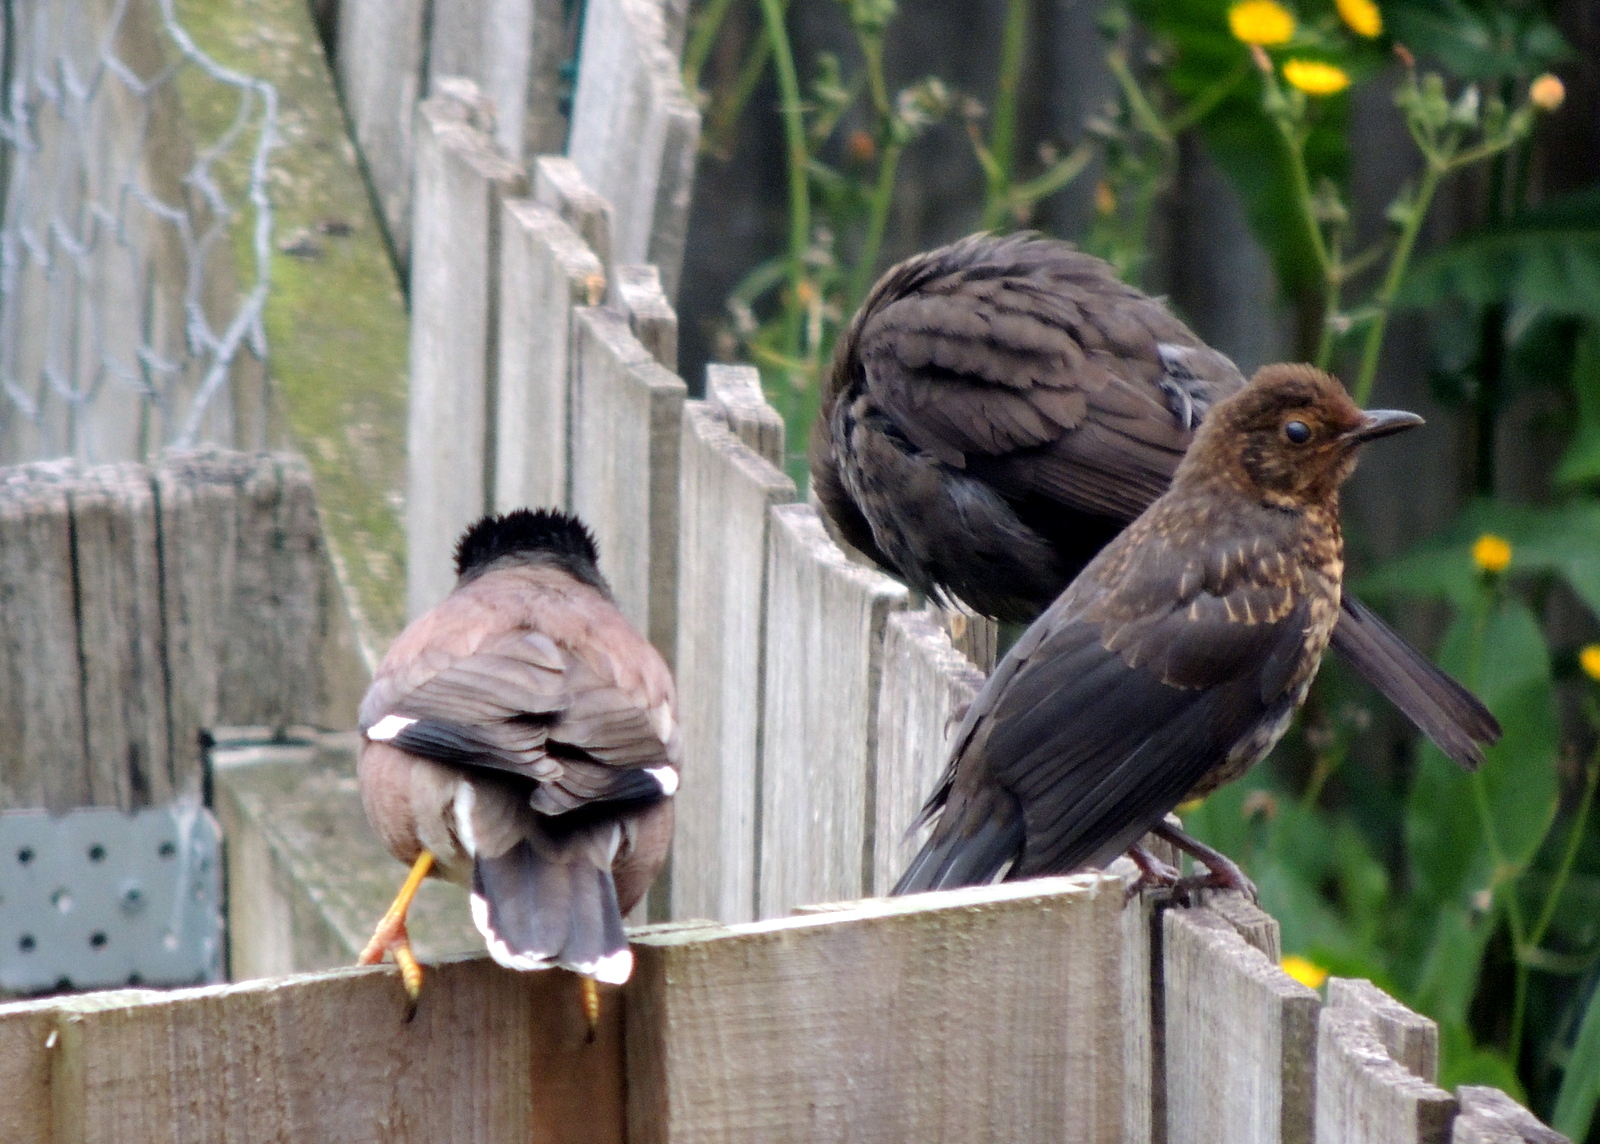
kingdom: Animalia
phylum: Chordata
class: Aves
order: Passeriformes
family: Sturnidae
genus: Acridotheres
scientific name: Acridotheres tristis
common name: Common myna
